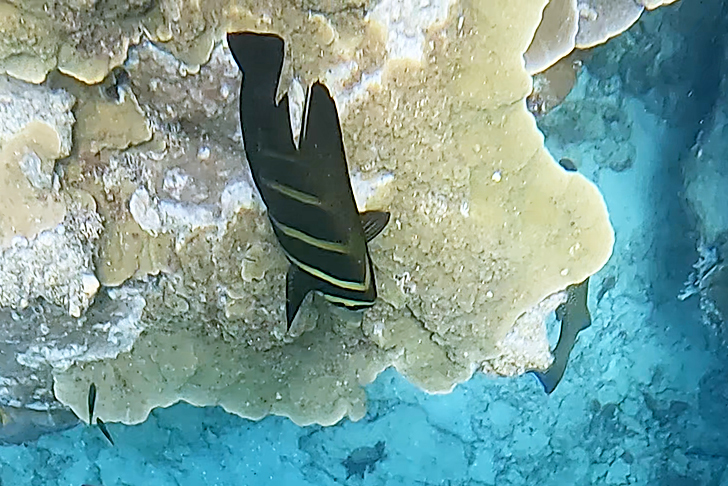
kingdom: Animalia
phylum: Chordata
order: Perciformes
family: Acanthuridae
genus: Zebrasoma
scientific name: Zebrasoma veliferum
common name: Sailfin surgeonfish
